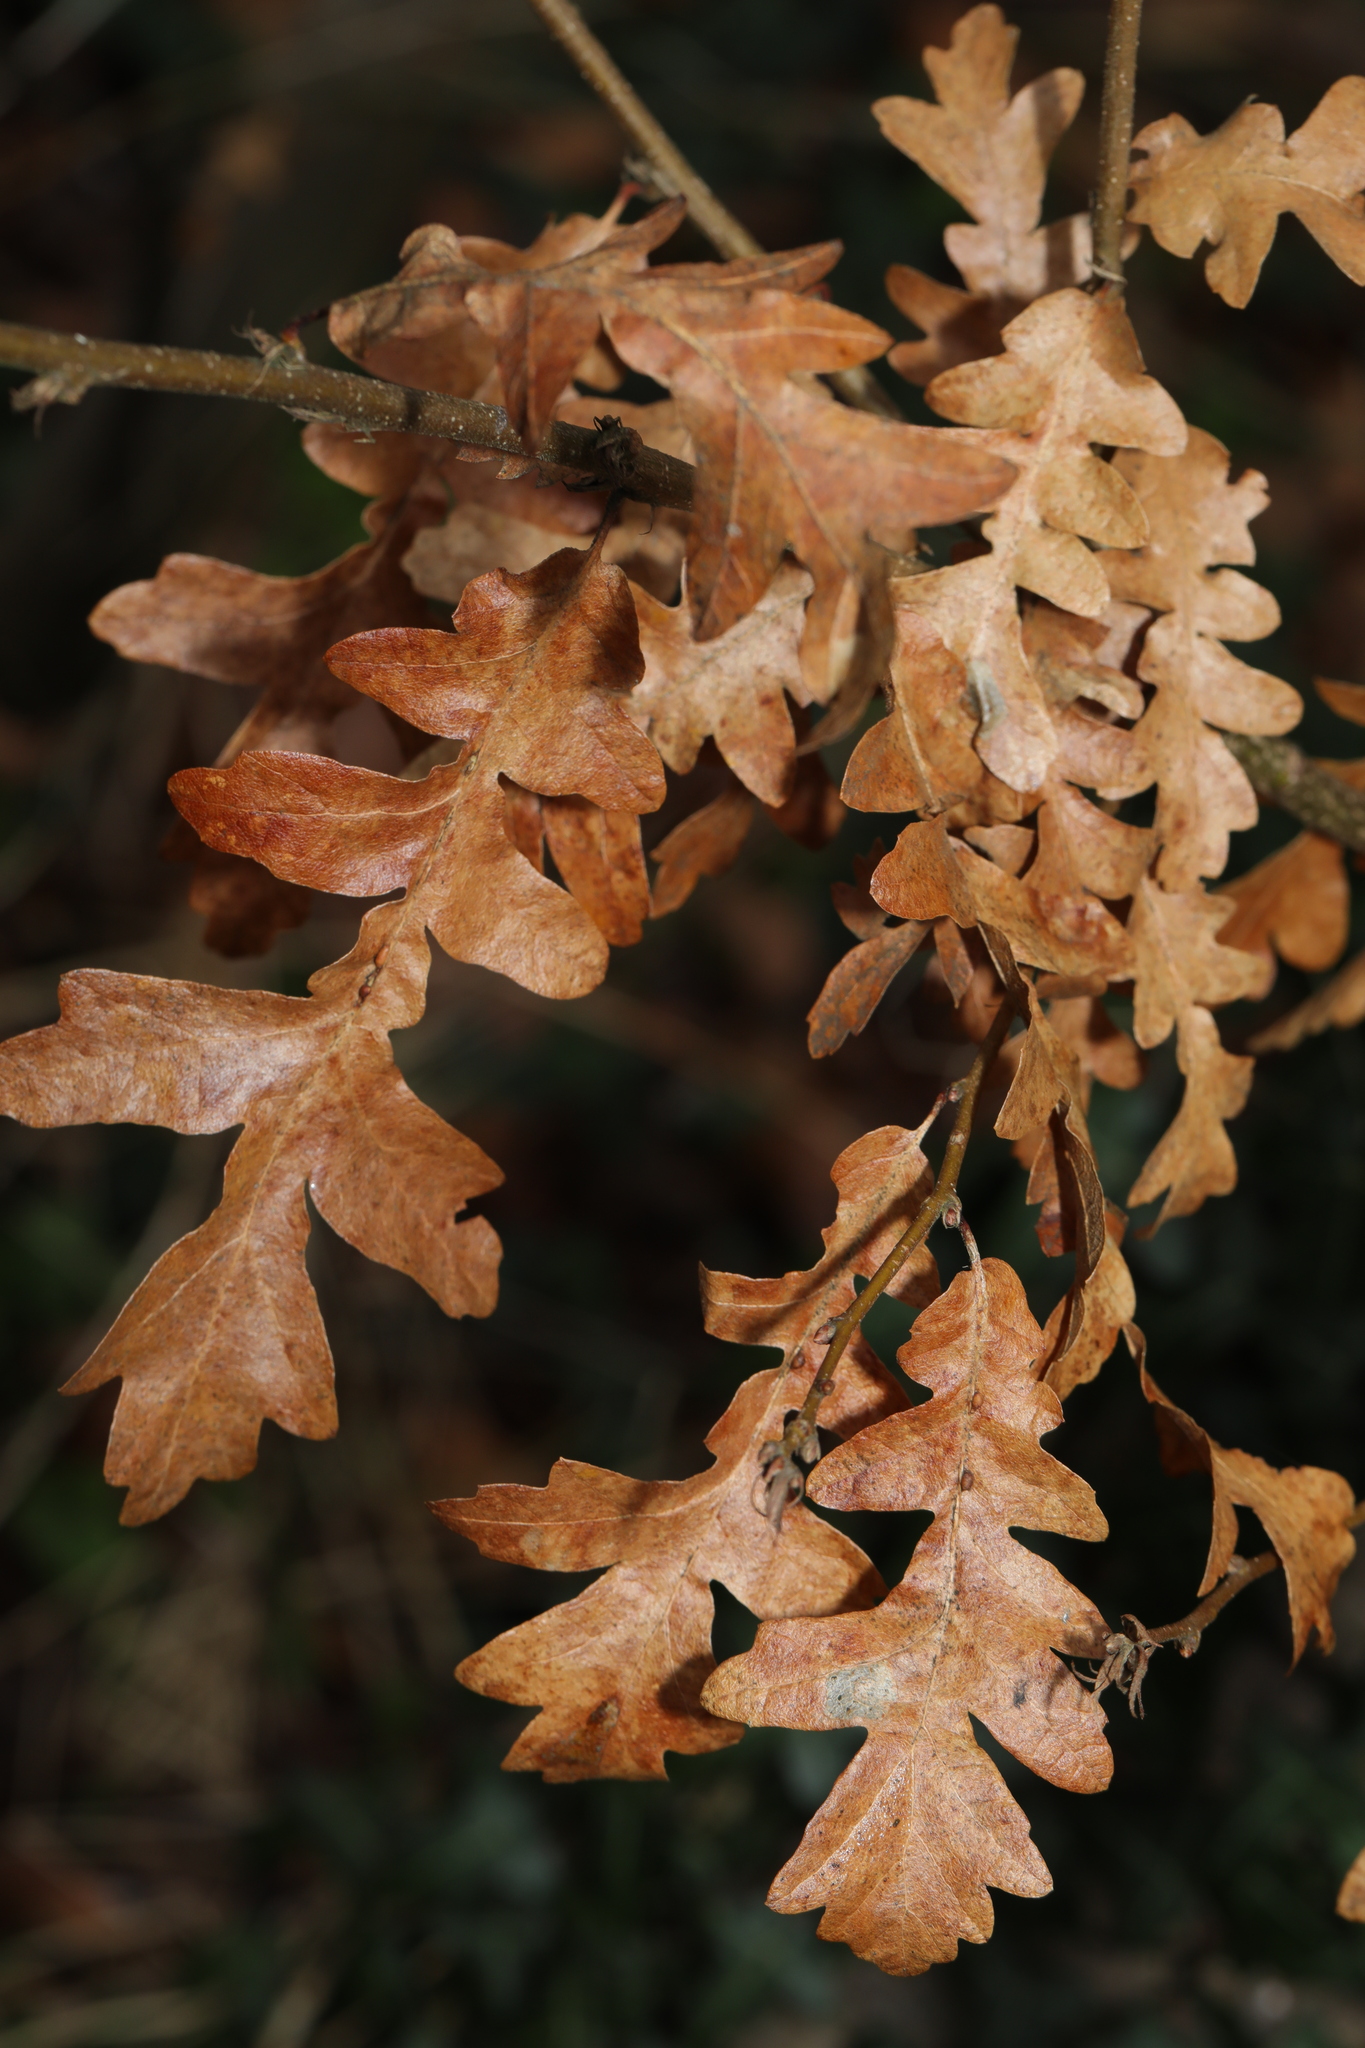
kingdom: Plantae
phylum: Tracheophyta
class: Magnoliopsida
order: Fagales
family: Fagaceae
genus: Quercus
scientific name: Quercus cerris
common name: Turkey oak
